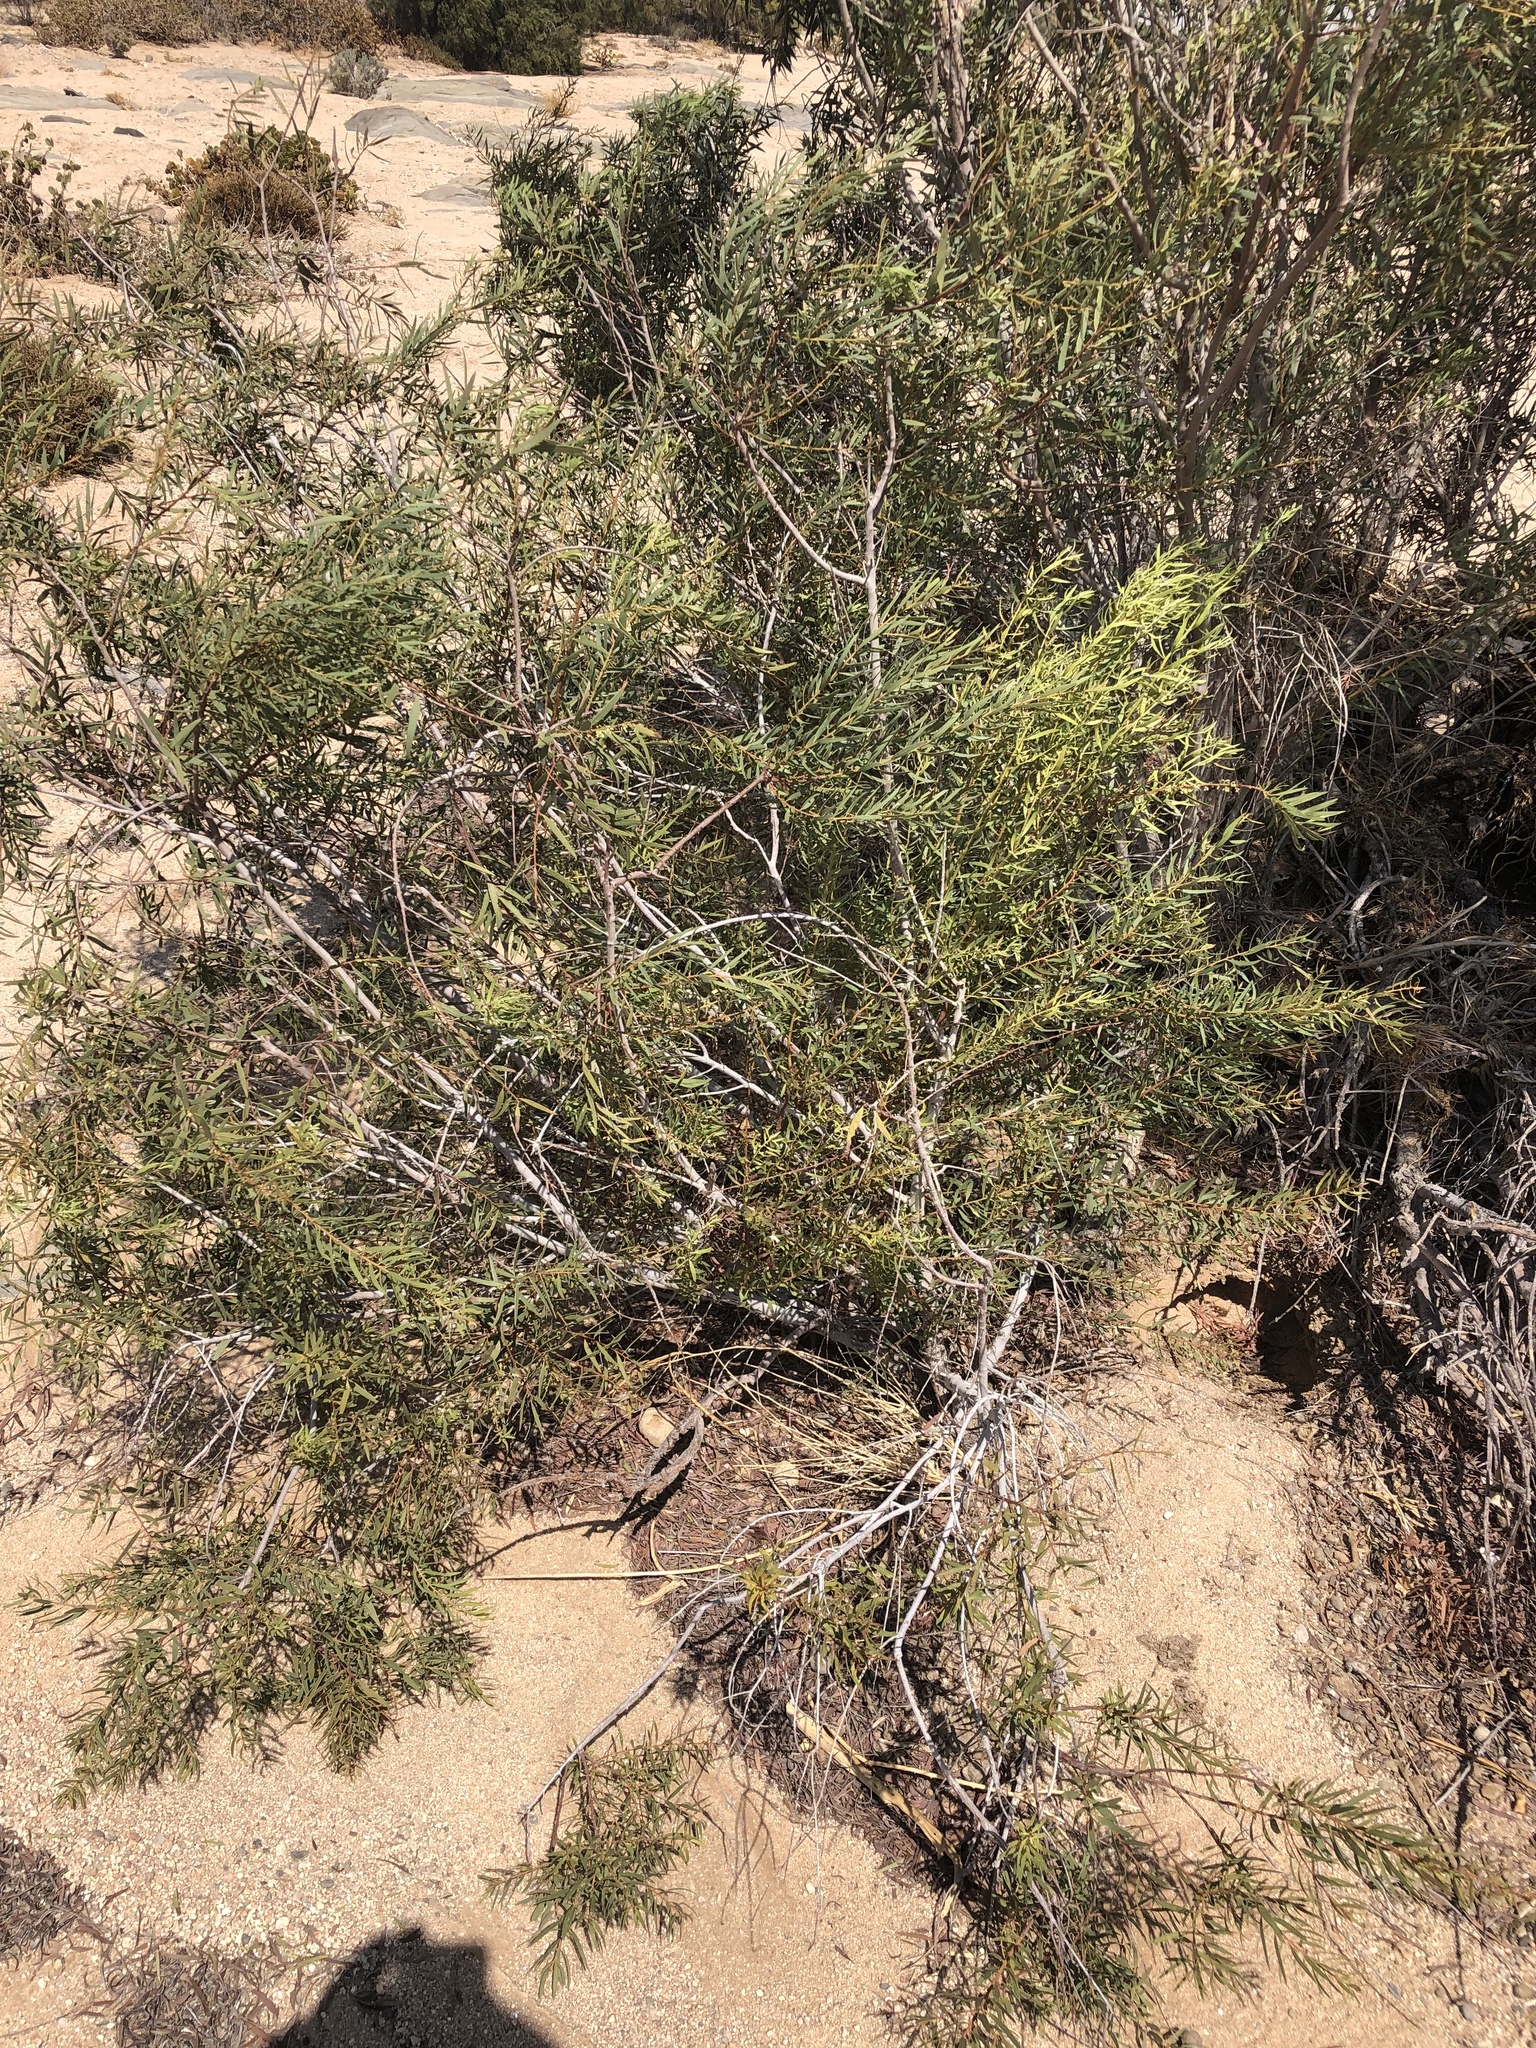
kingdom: Plantae
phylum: Tracheophyta
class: Magnoliopsida
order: Ericales
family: Ebenaceae
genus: Euclea
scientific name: Euclea pseudebenus
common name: Black ebony
